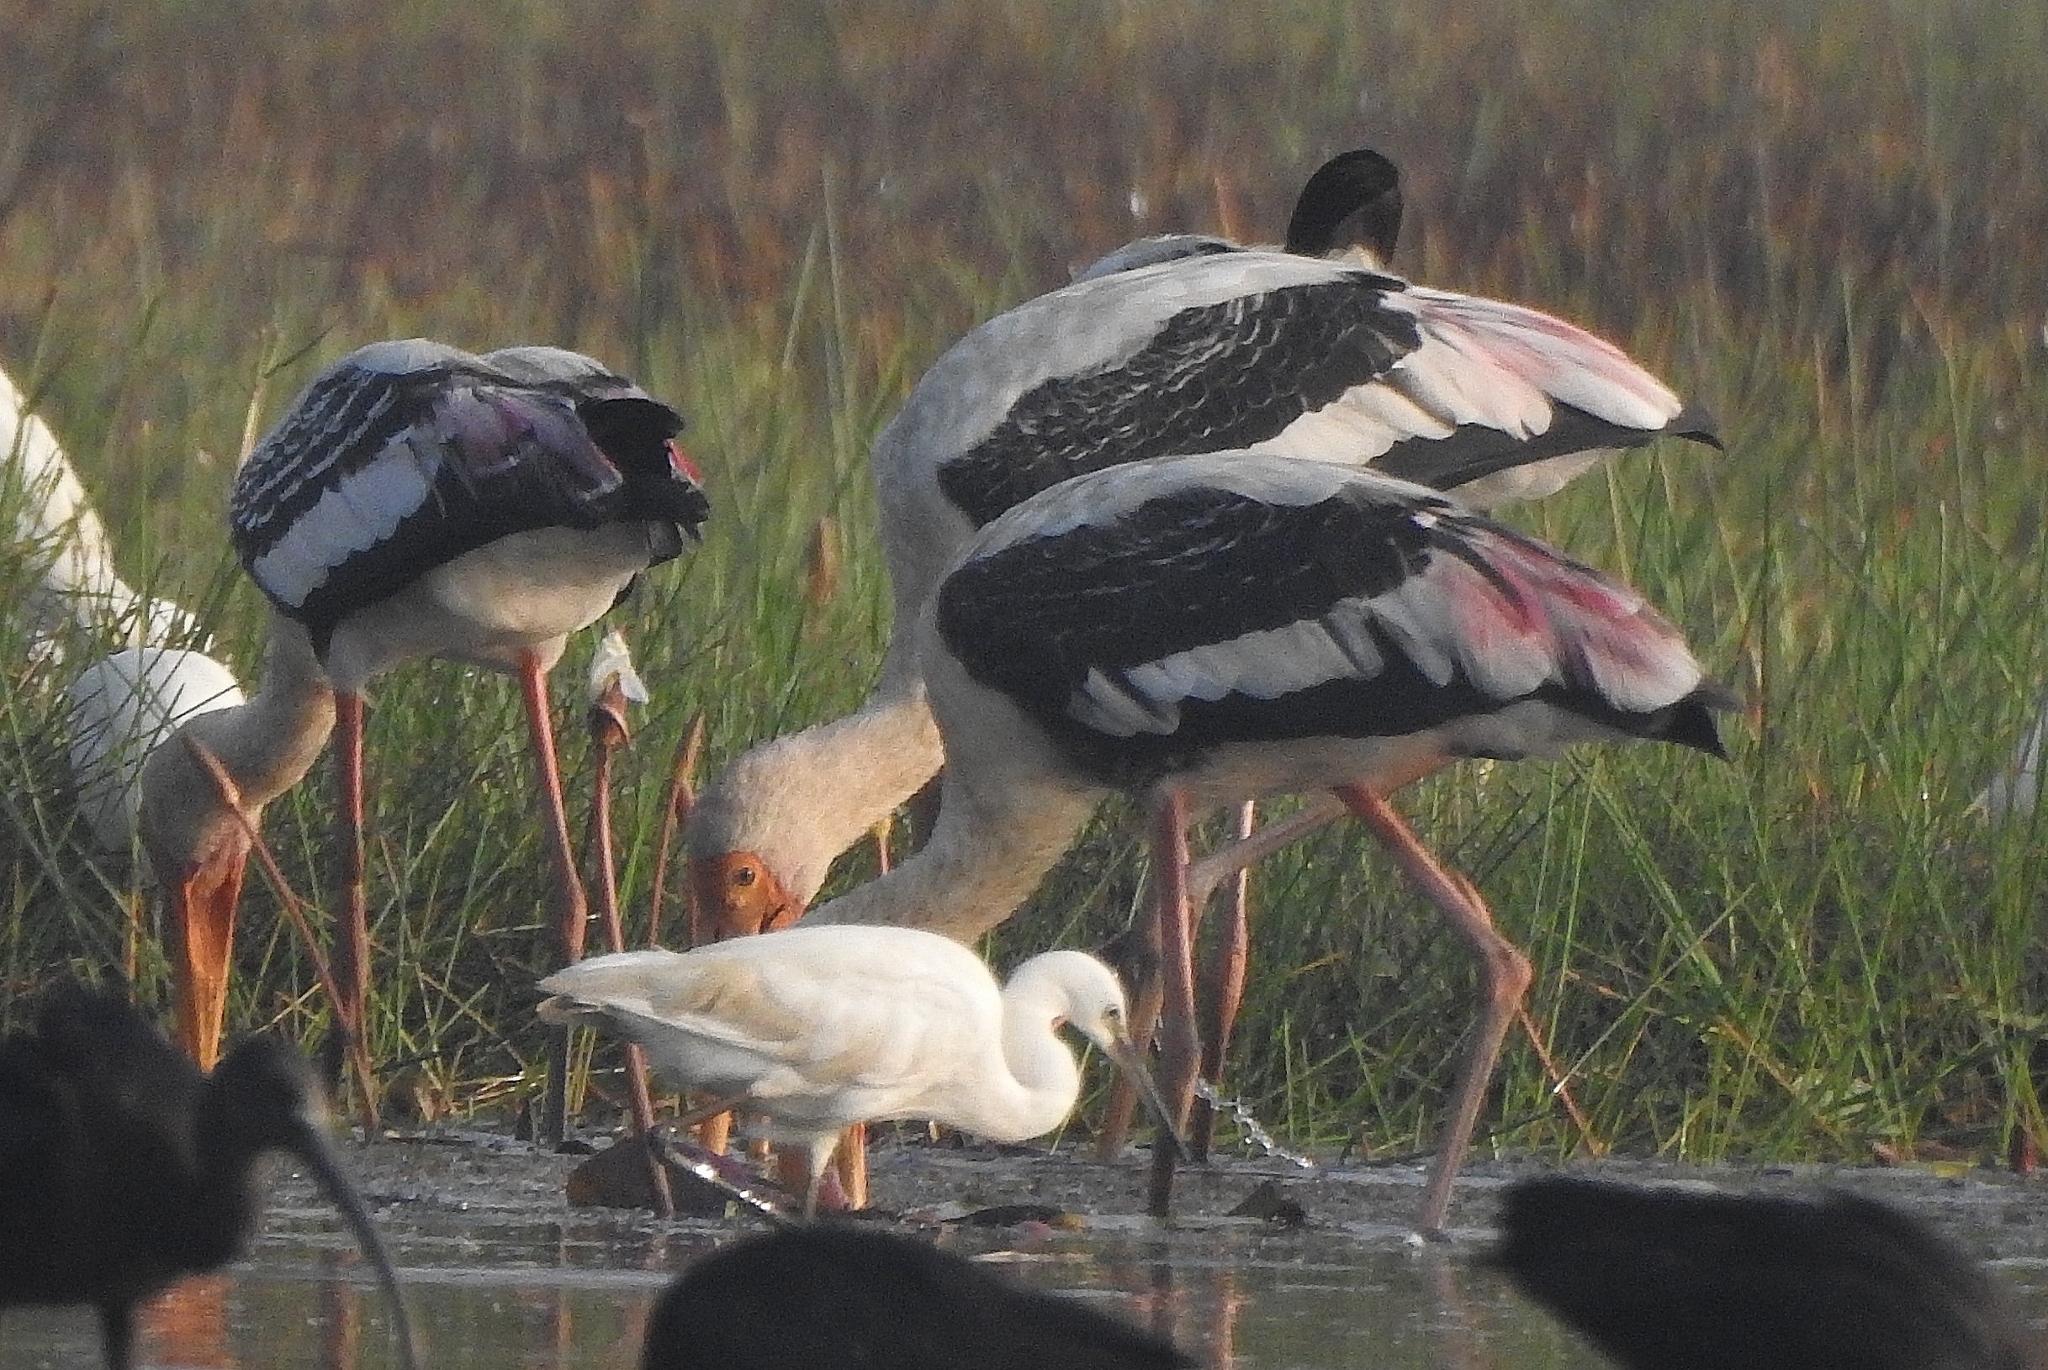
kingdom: Animalia
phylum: Chordata
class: Aves
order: Ciconiiformes
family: Ciconiidae
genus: Mycteria
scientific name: Mycteria leucocephala
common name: Painted stork
